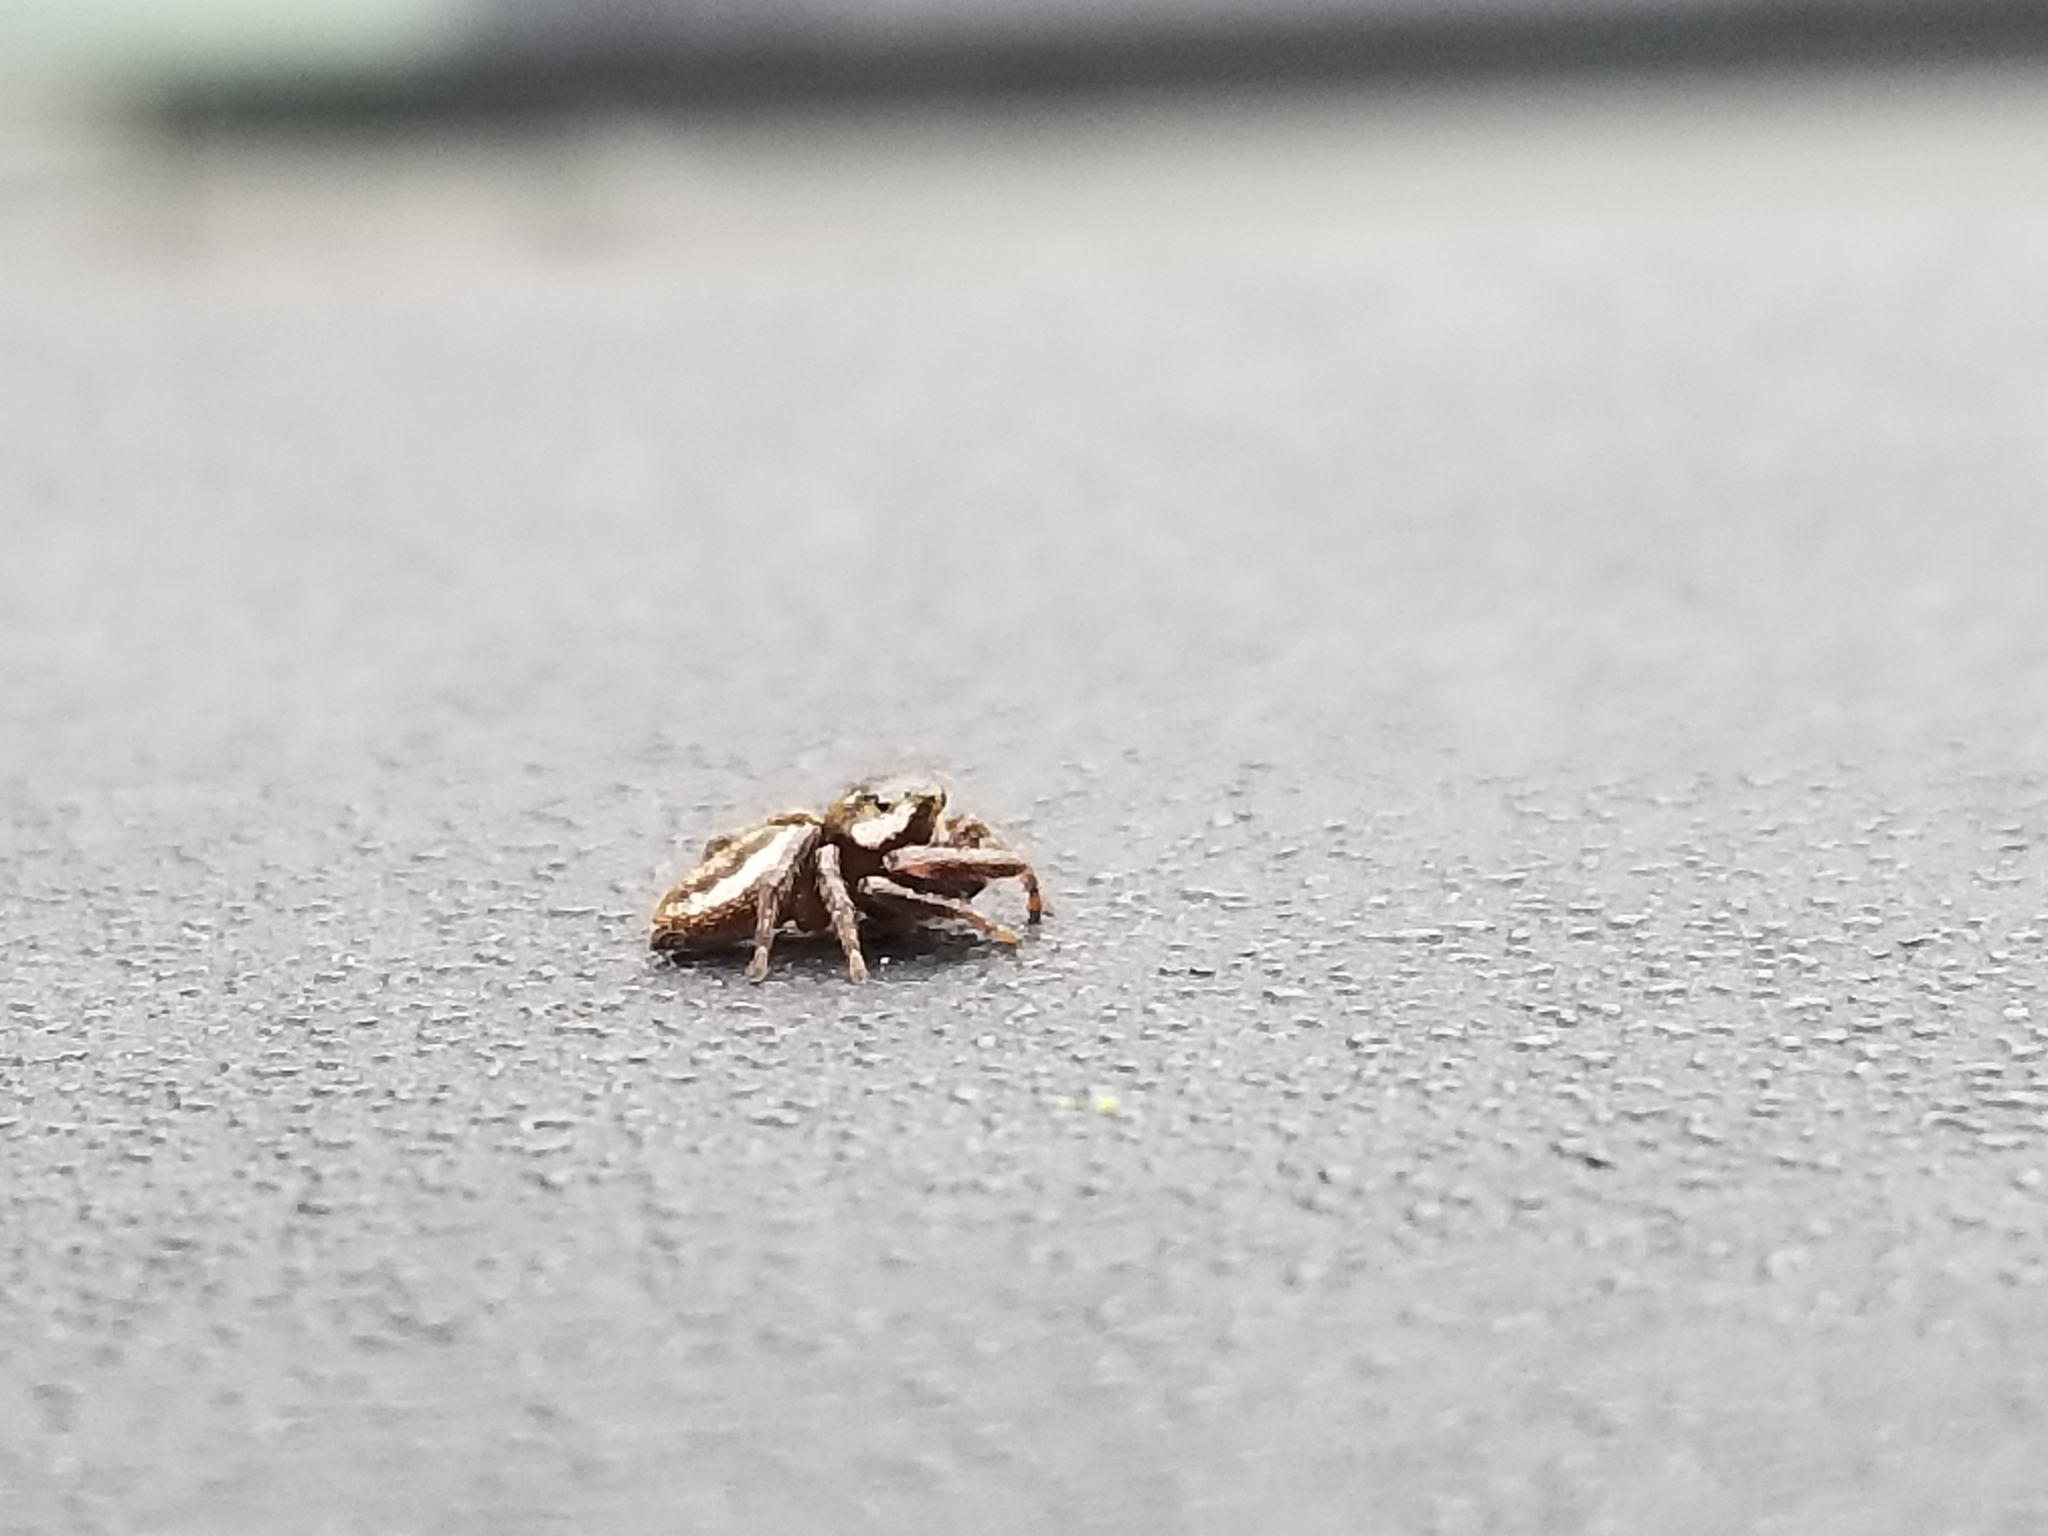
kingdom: Animalia
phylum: Arthropoda
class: Arachnida
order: Araneae
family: Salticidae
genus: Eris
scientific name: Eris militaris
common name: Bronze jumper
